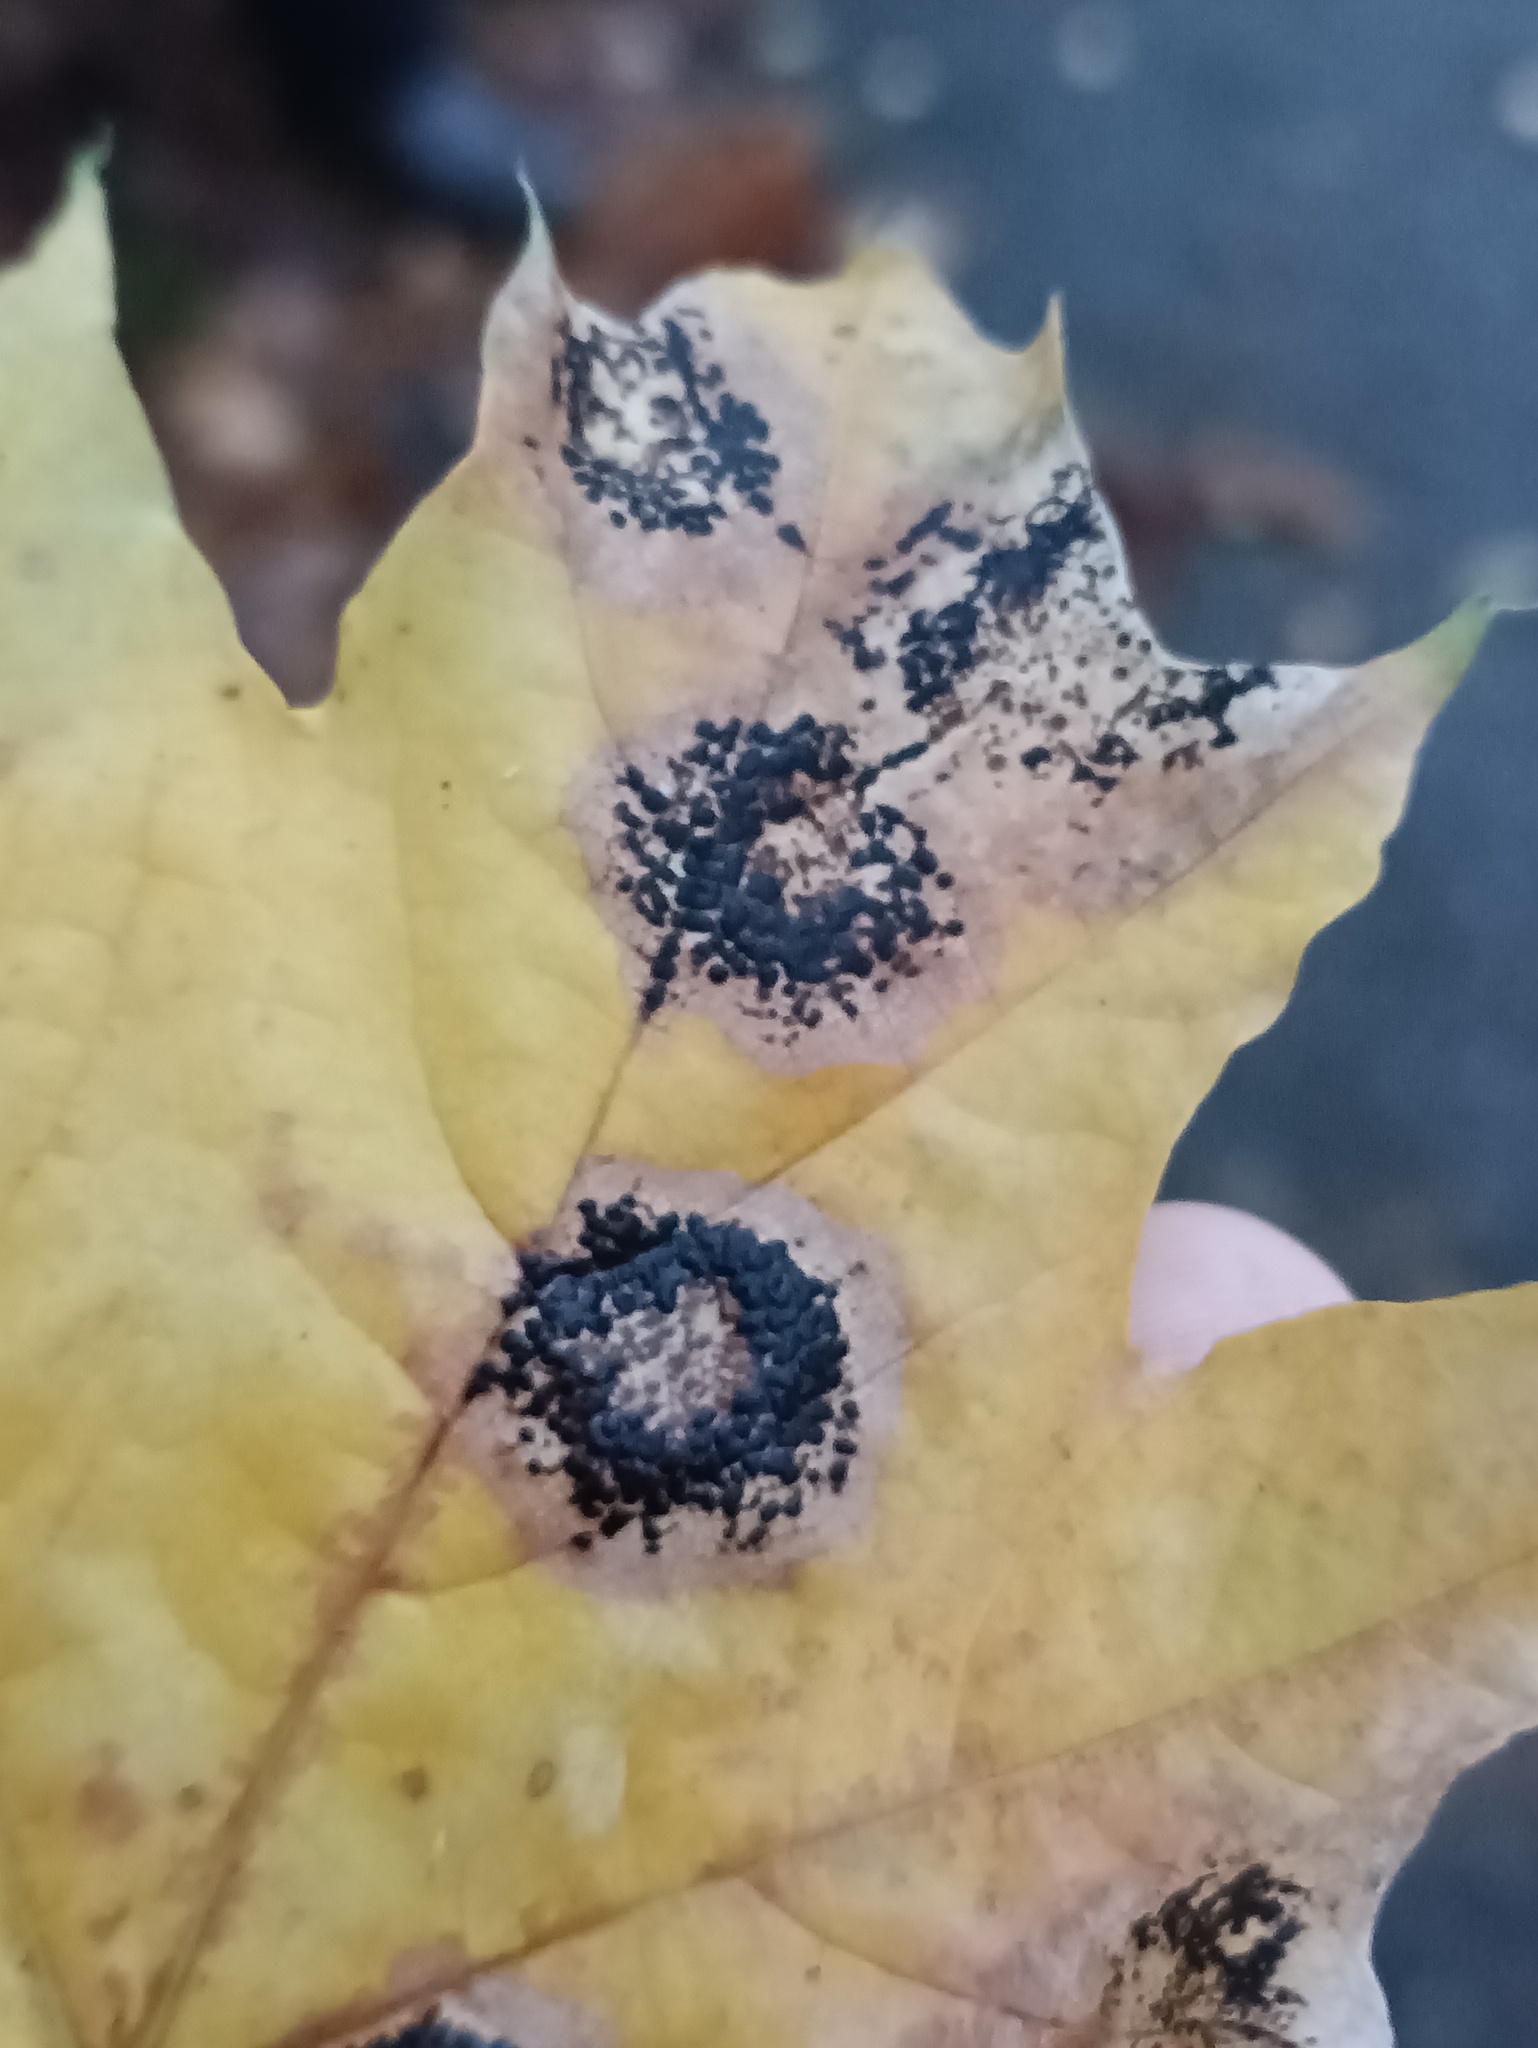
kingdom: Fungi
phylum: Ascomycota
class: Leotiomycetes
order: Rhytismatales
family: Rhytismataceae
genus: Rhytisma
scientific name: Rhytisma acerinum
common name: European tar spot
